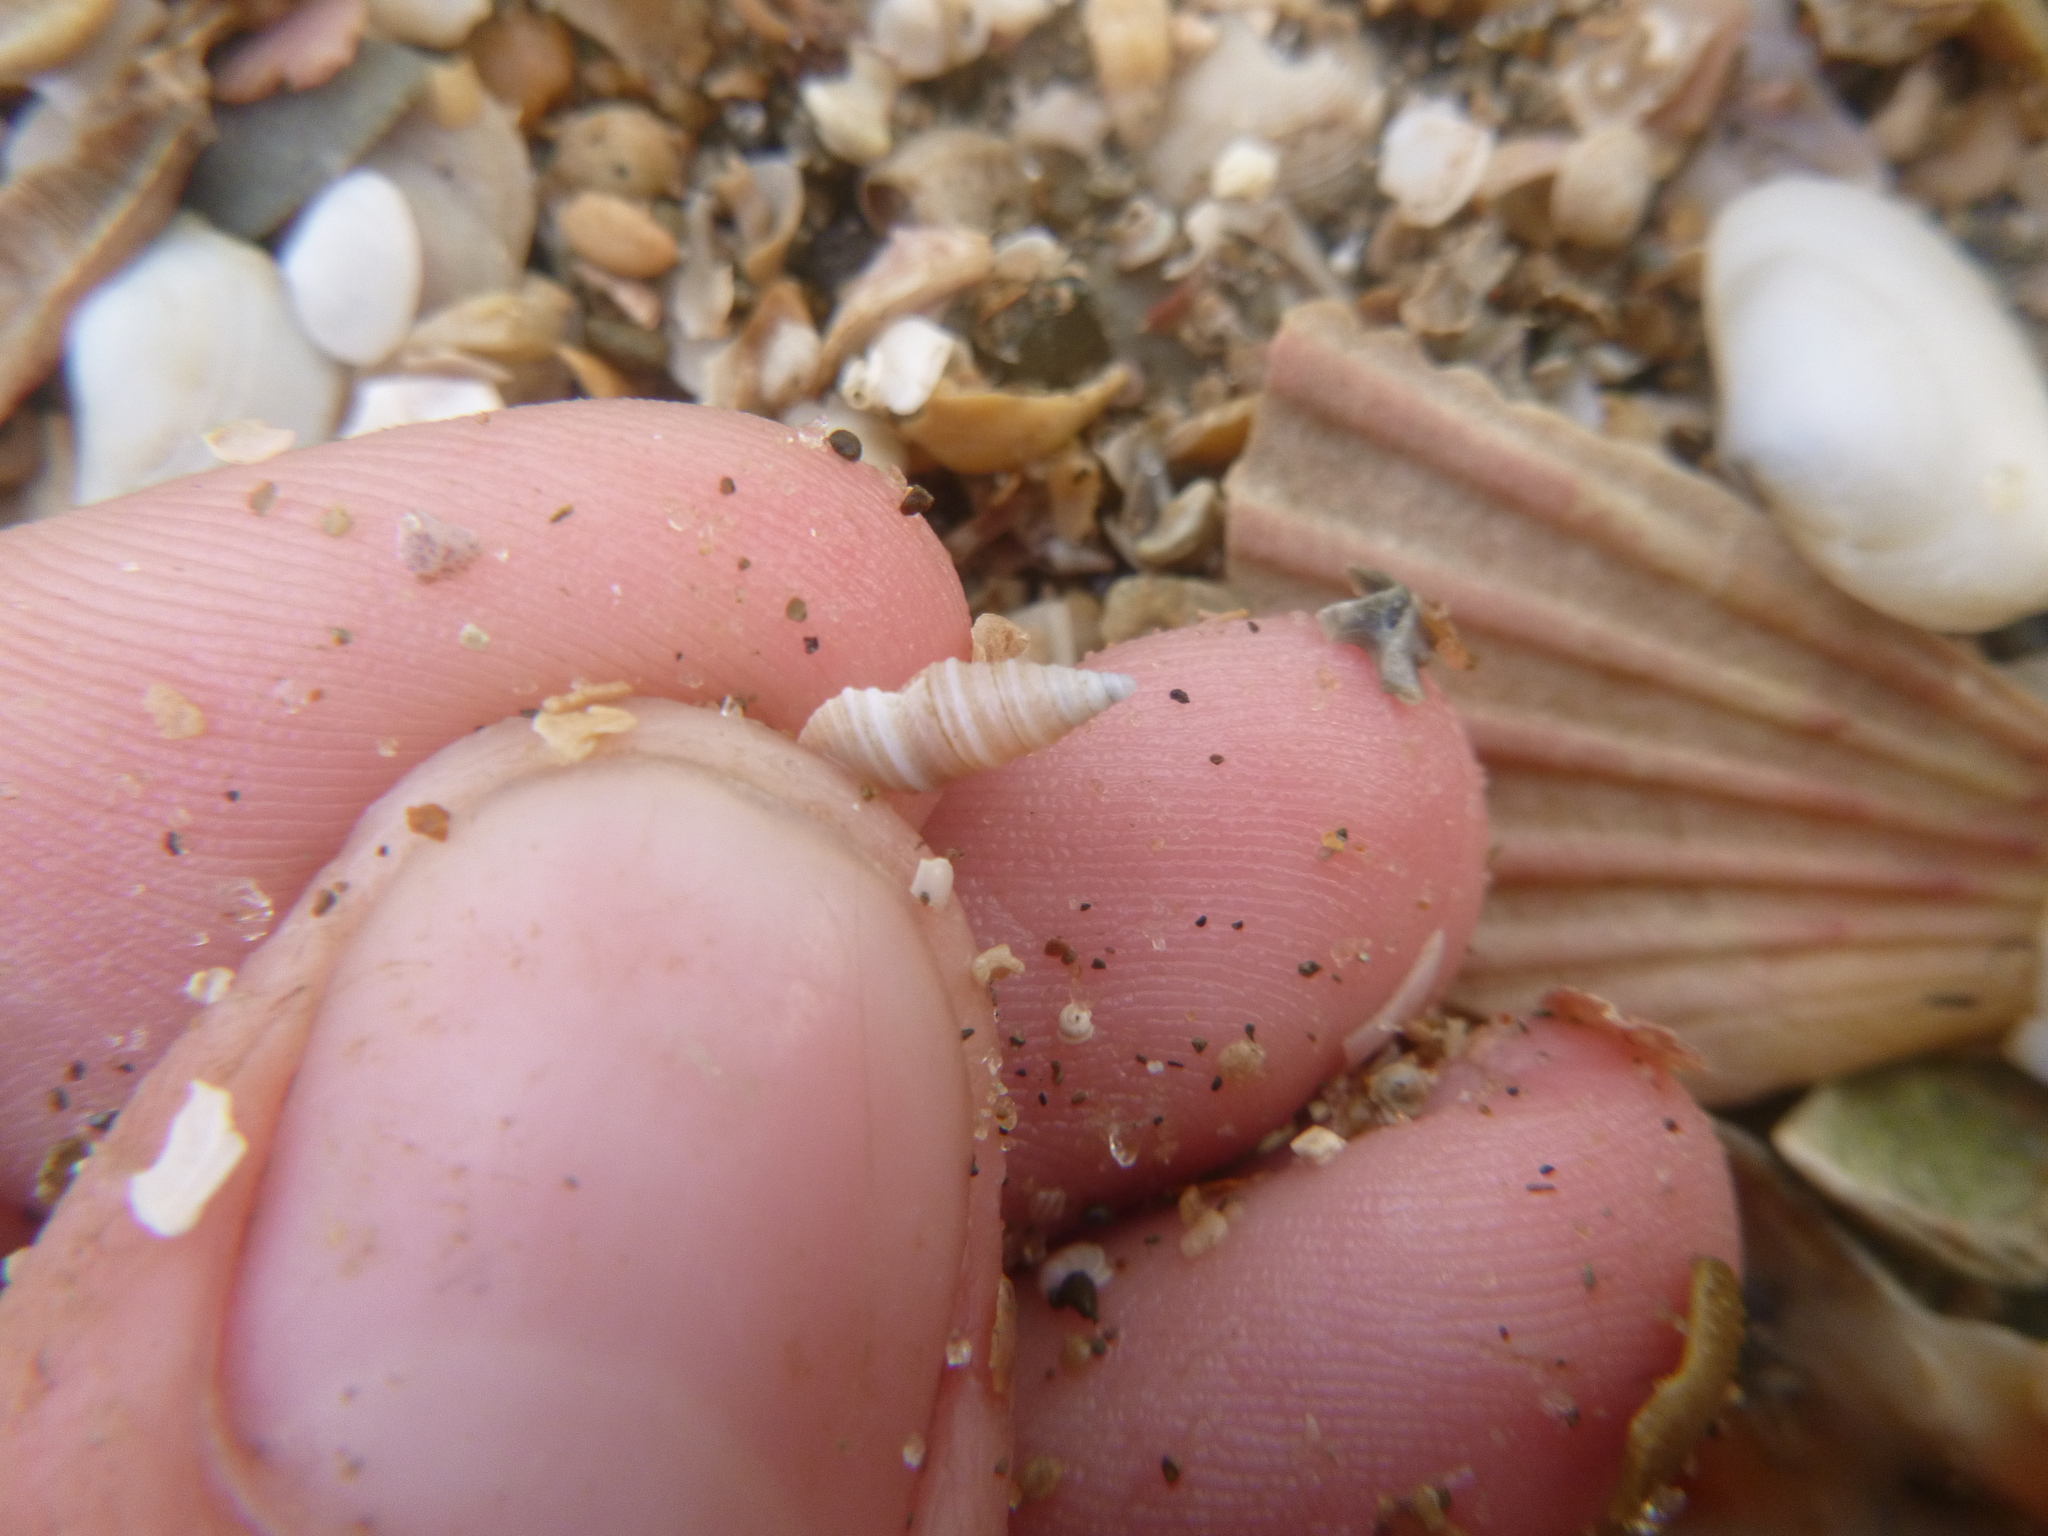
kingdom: Animalia
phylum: Mollusca
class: Gastropoda
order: Neogastropoda
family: Borsoniidae
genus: Maoritomella
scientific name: Maoritomella albula
